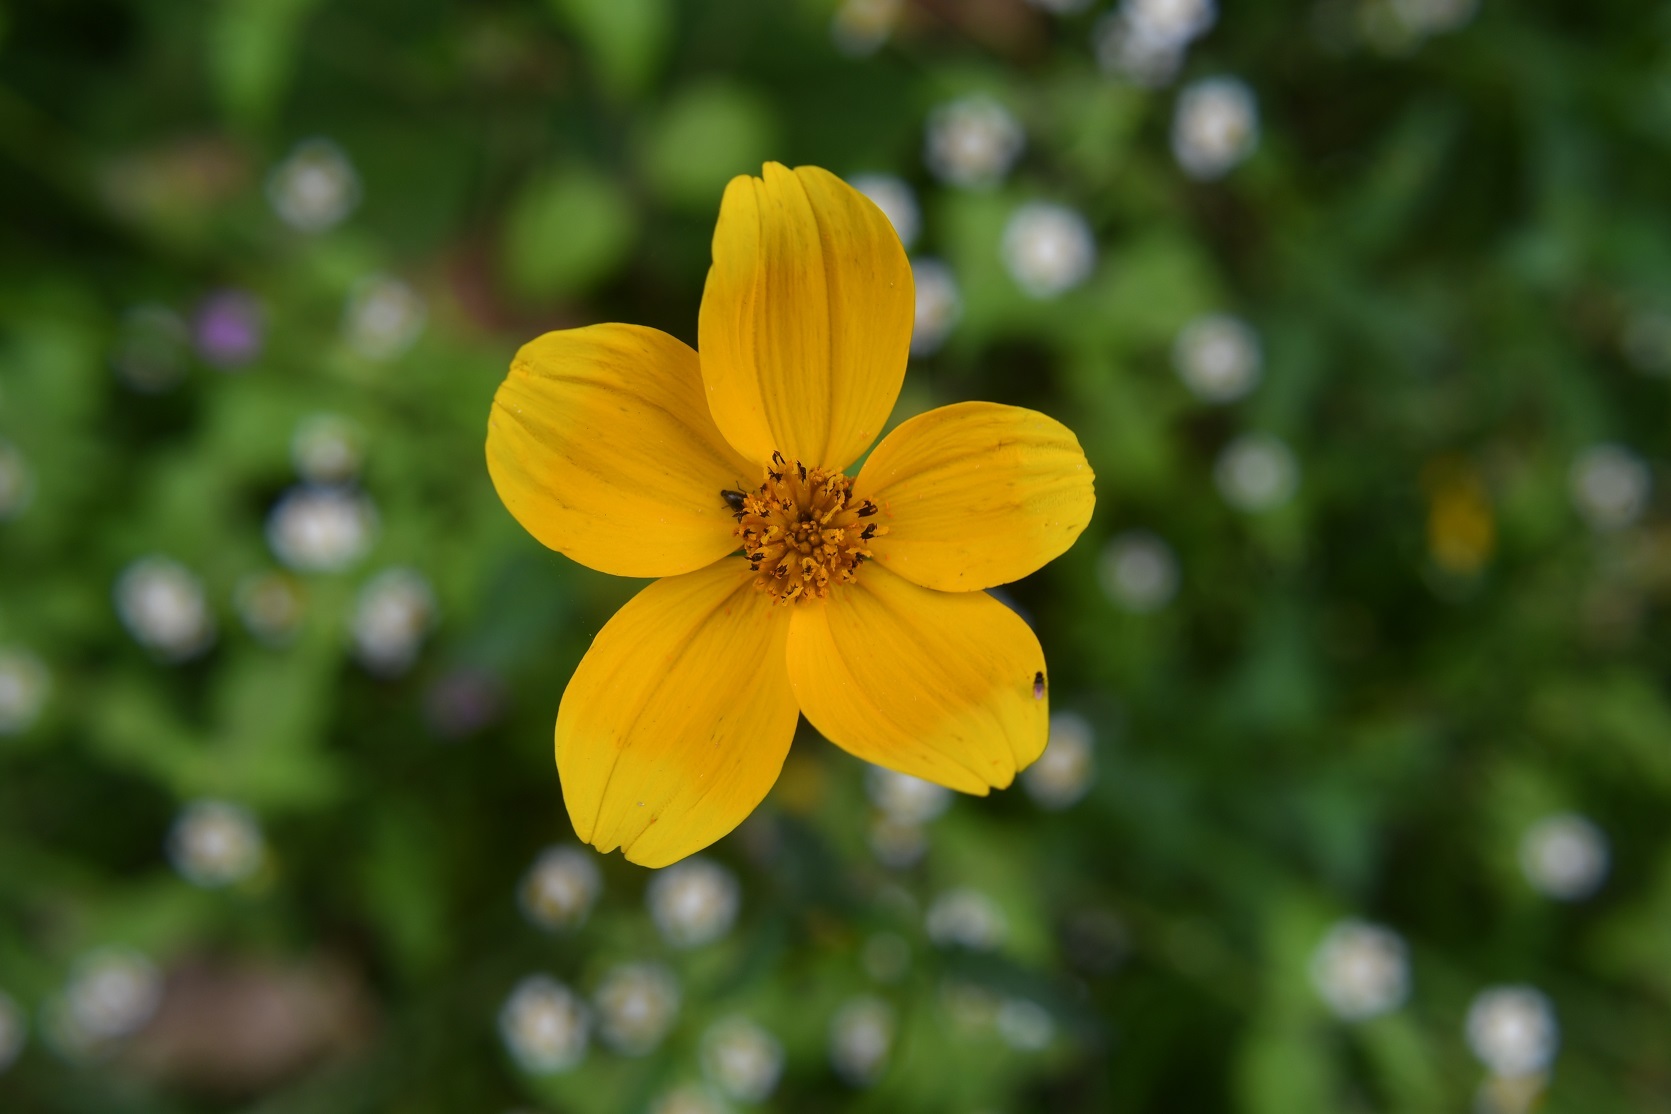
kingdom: Plantae
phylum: Tracheophyta
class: Magnoliopsida
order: Asterales
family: Asteraceae
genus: Bidens
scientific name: Bidens aurea
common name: Arizona beggar-ticks
